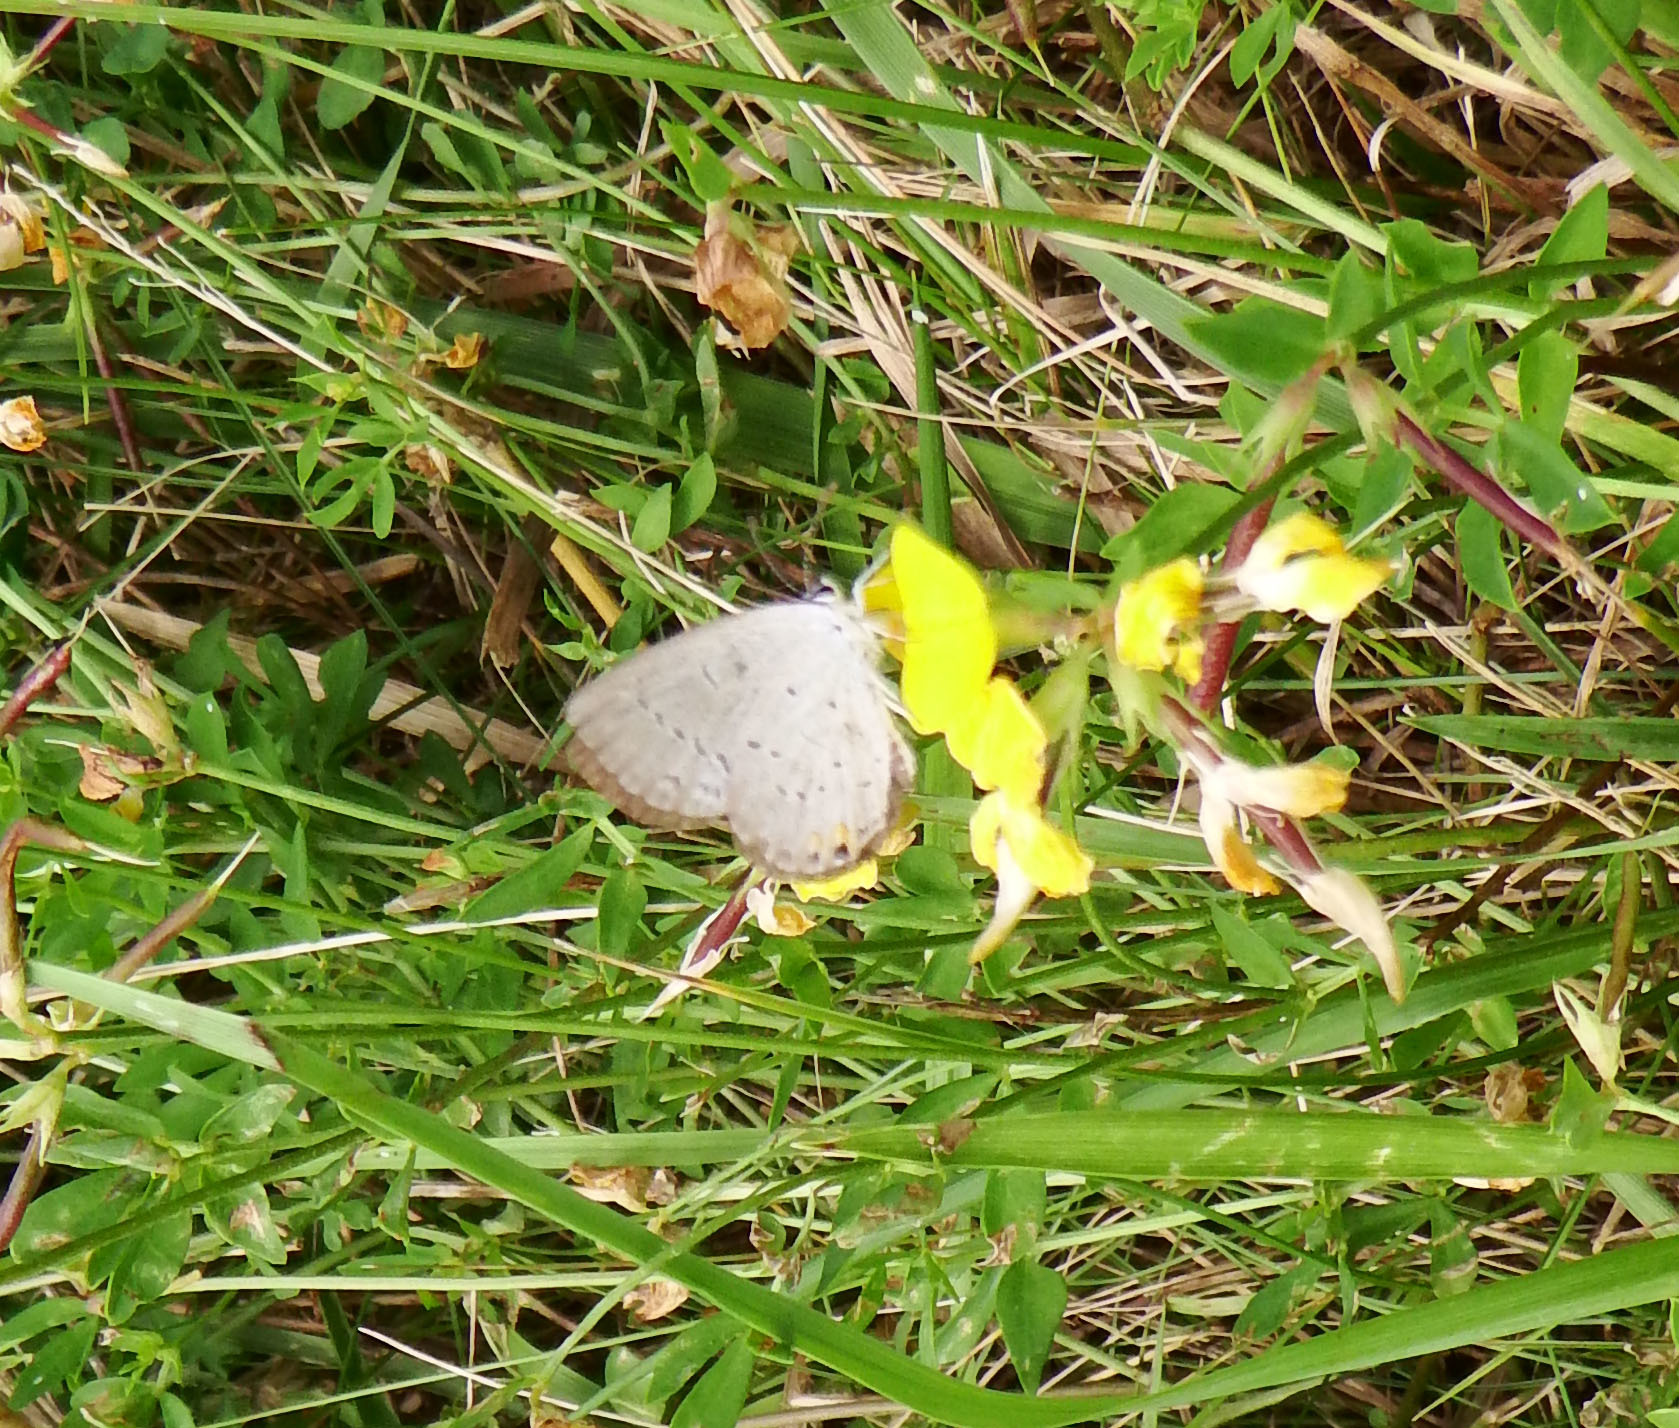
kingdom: Animalia
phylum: Arthropoda
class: Insecta
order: Lepidoptera
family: Lycaenidae
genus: Elkalyce
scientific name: Elkalyce comyntas
